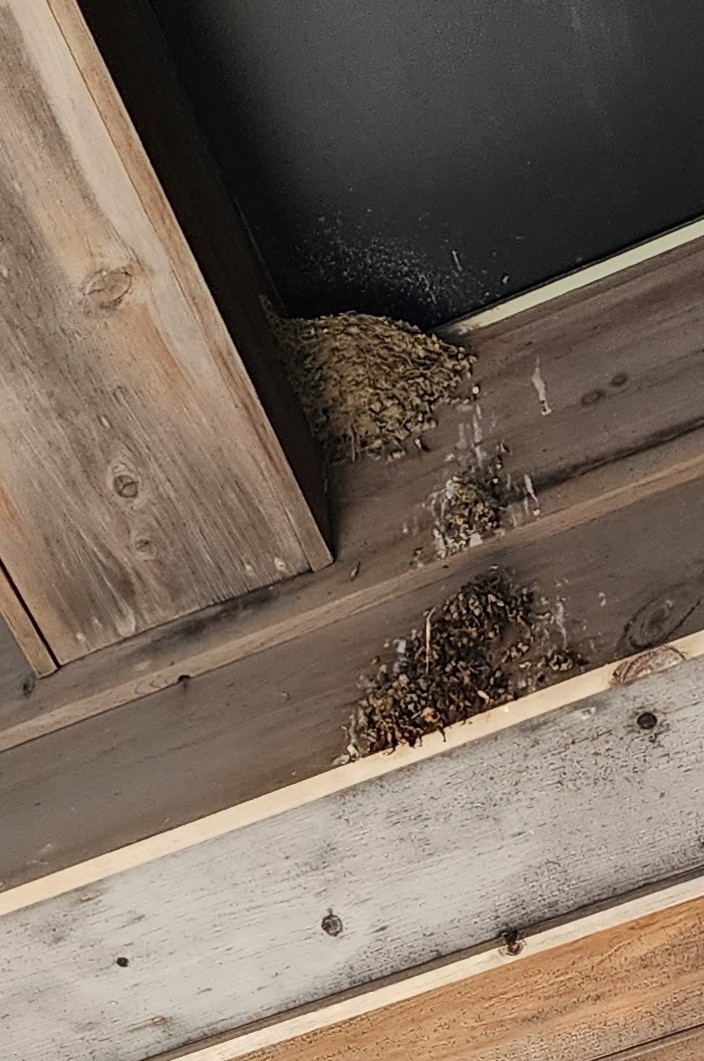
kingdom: Animalia
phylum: Chordata
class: Aves
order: Passeriformes
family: Hirundinidae
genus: Hirundo
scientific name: Hirundo rustica
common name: Barn swallow
